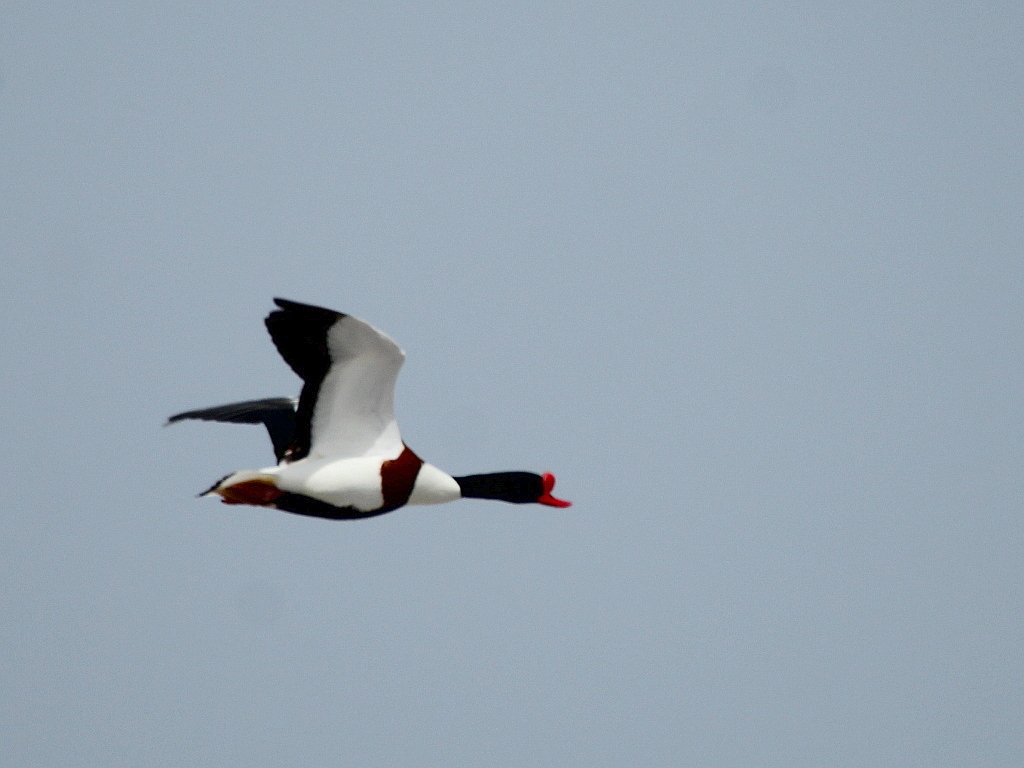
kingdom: Animalia
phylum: Chordata
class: Aves
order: Anseriformes
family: Anatidae
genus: Tadorna
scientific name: Tadorna tadorna
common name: Common shelduck
